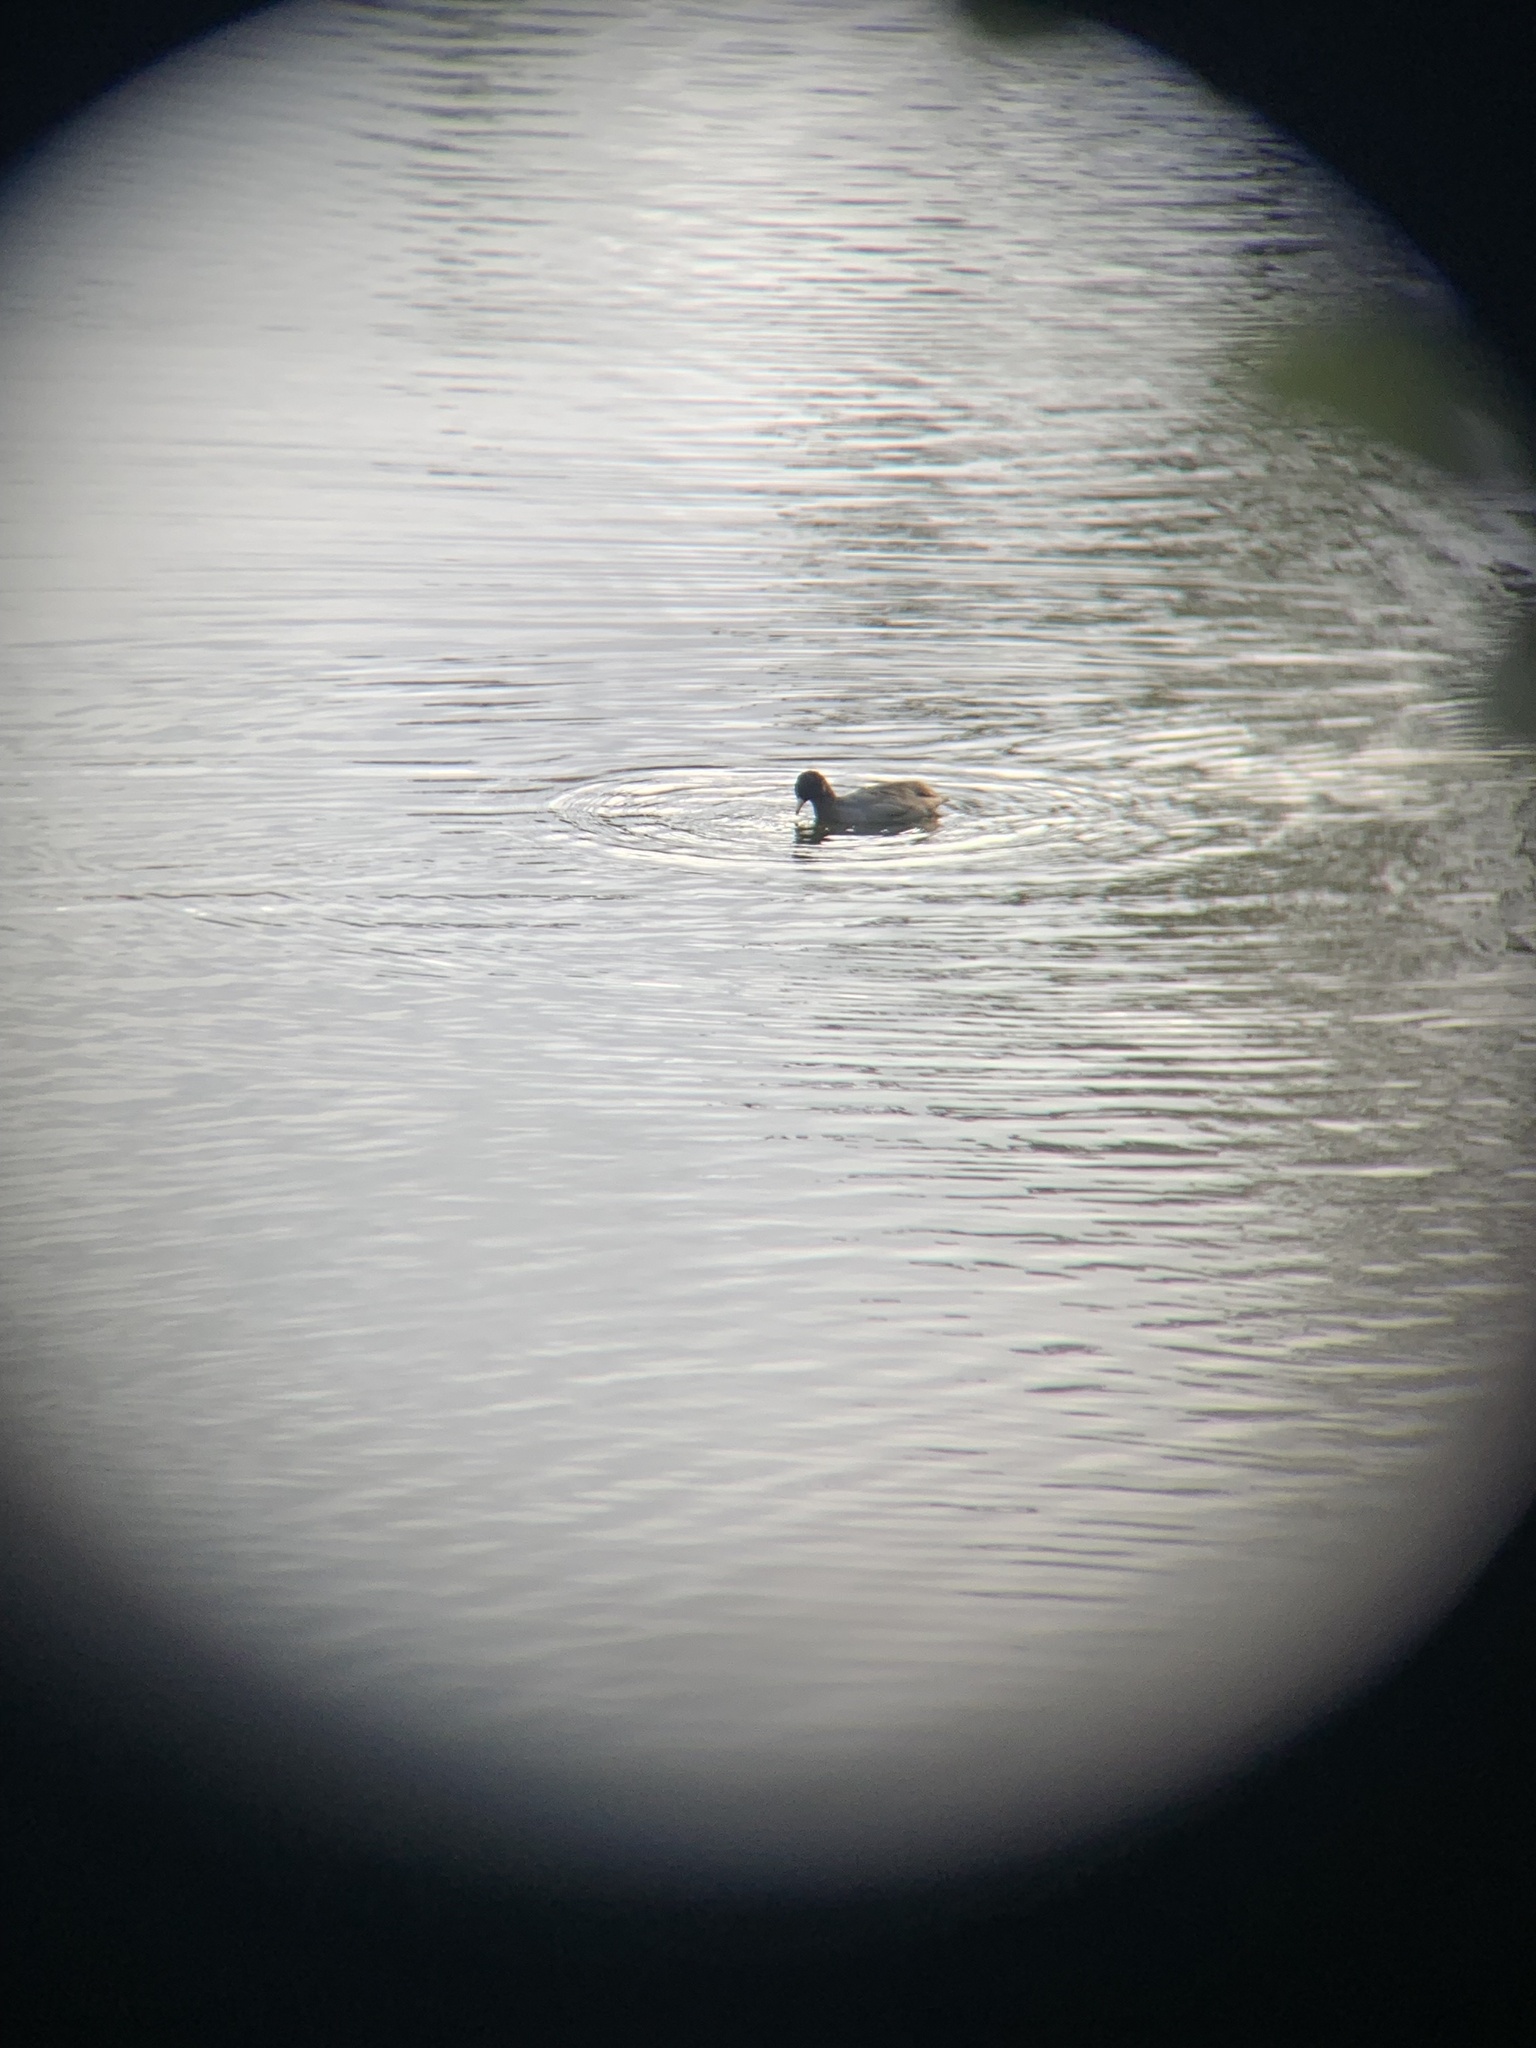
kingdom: Animalia
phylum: Chordata
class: Aves
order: Gruiformes
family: Rallidae
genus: Fulica
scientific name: Fulica americana
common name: American coot
